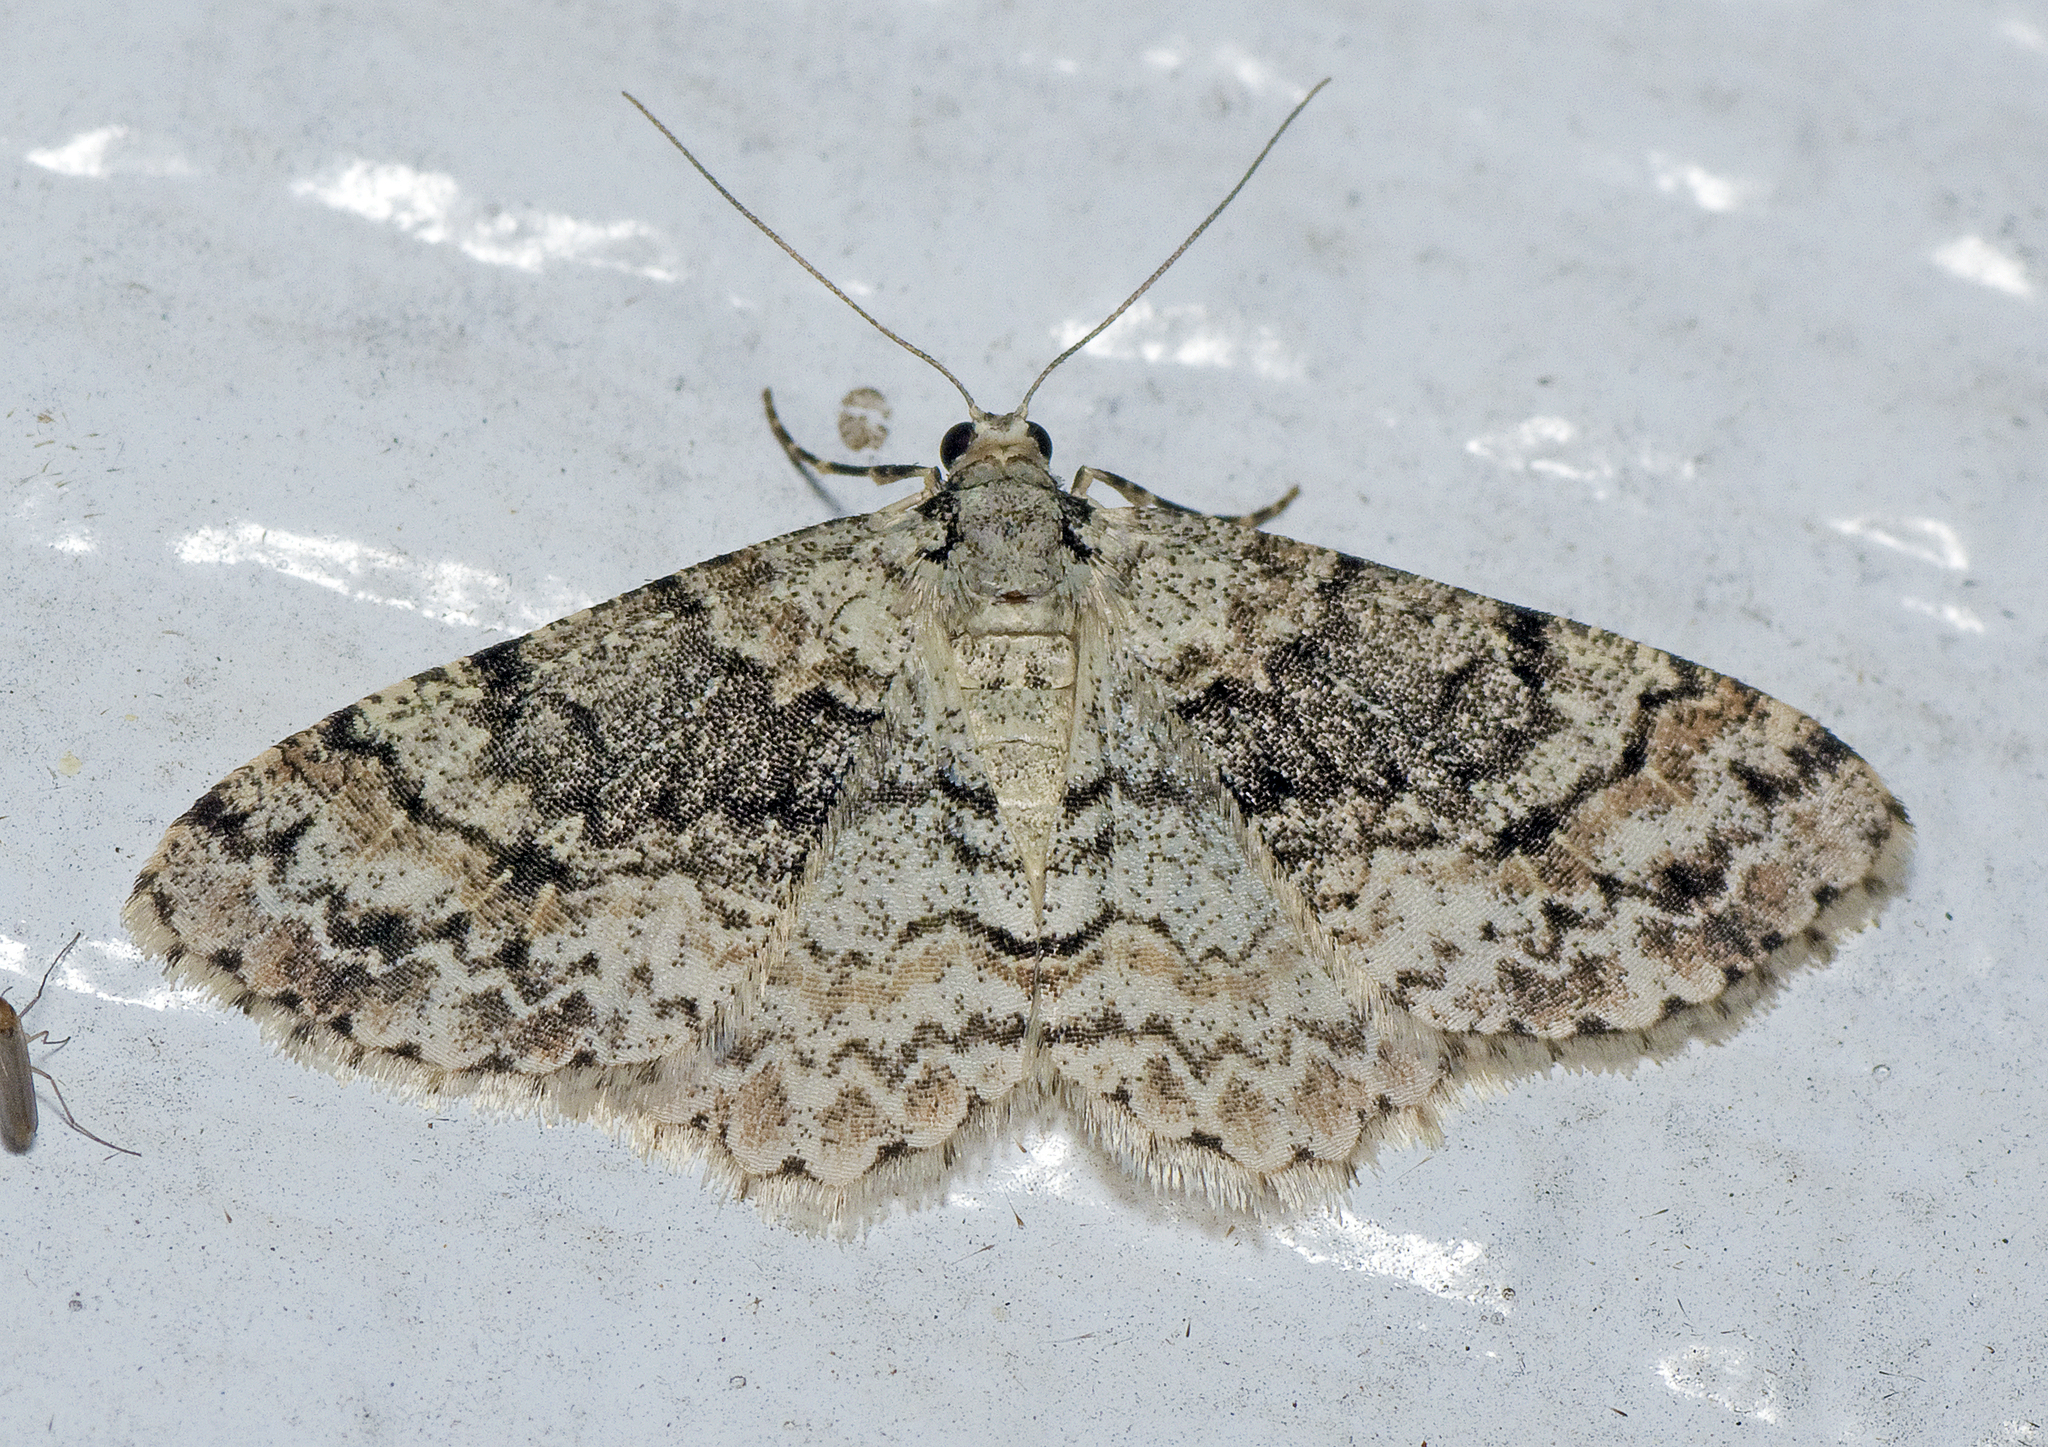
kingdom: Animalia
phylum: Arthropoda
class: Insecta
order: Lepidoptera
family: Geometridae
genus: Myrioblephara
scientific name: Myrioblephara desumpta
